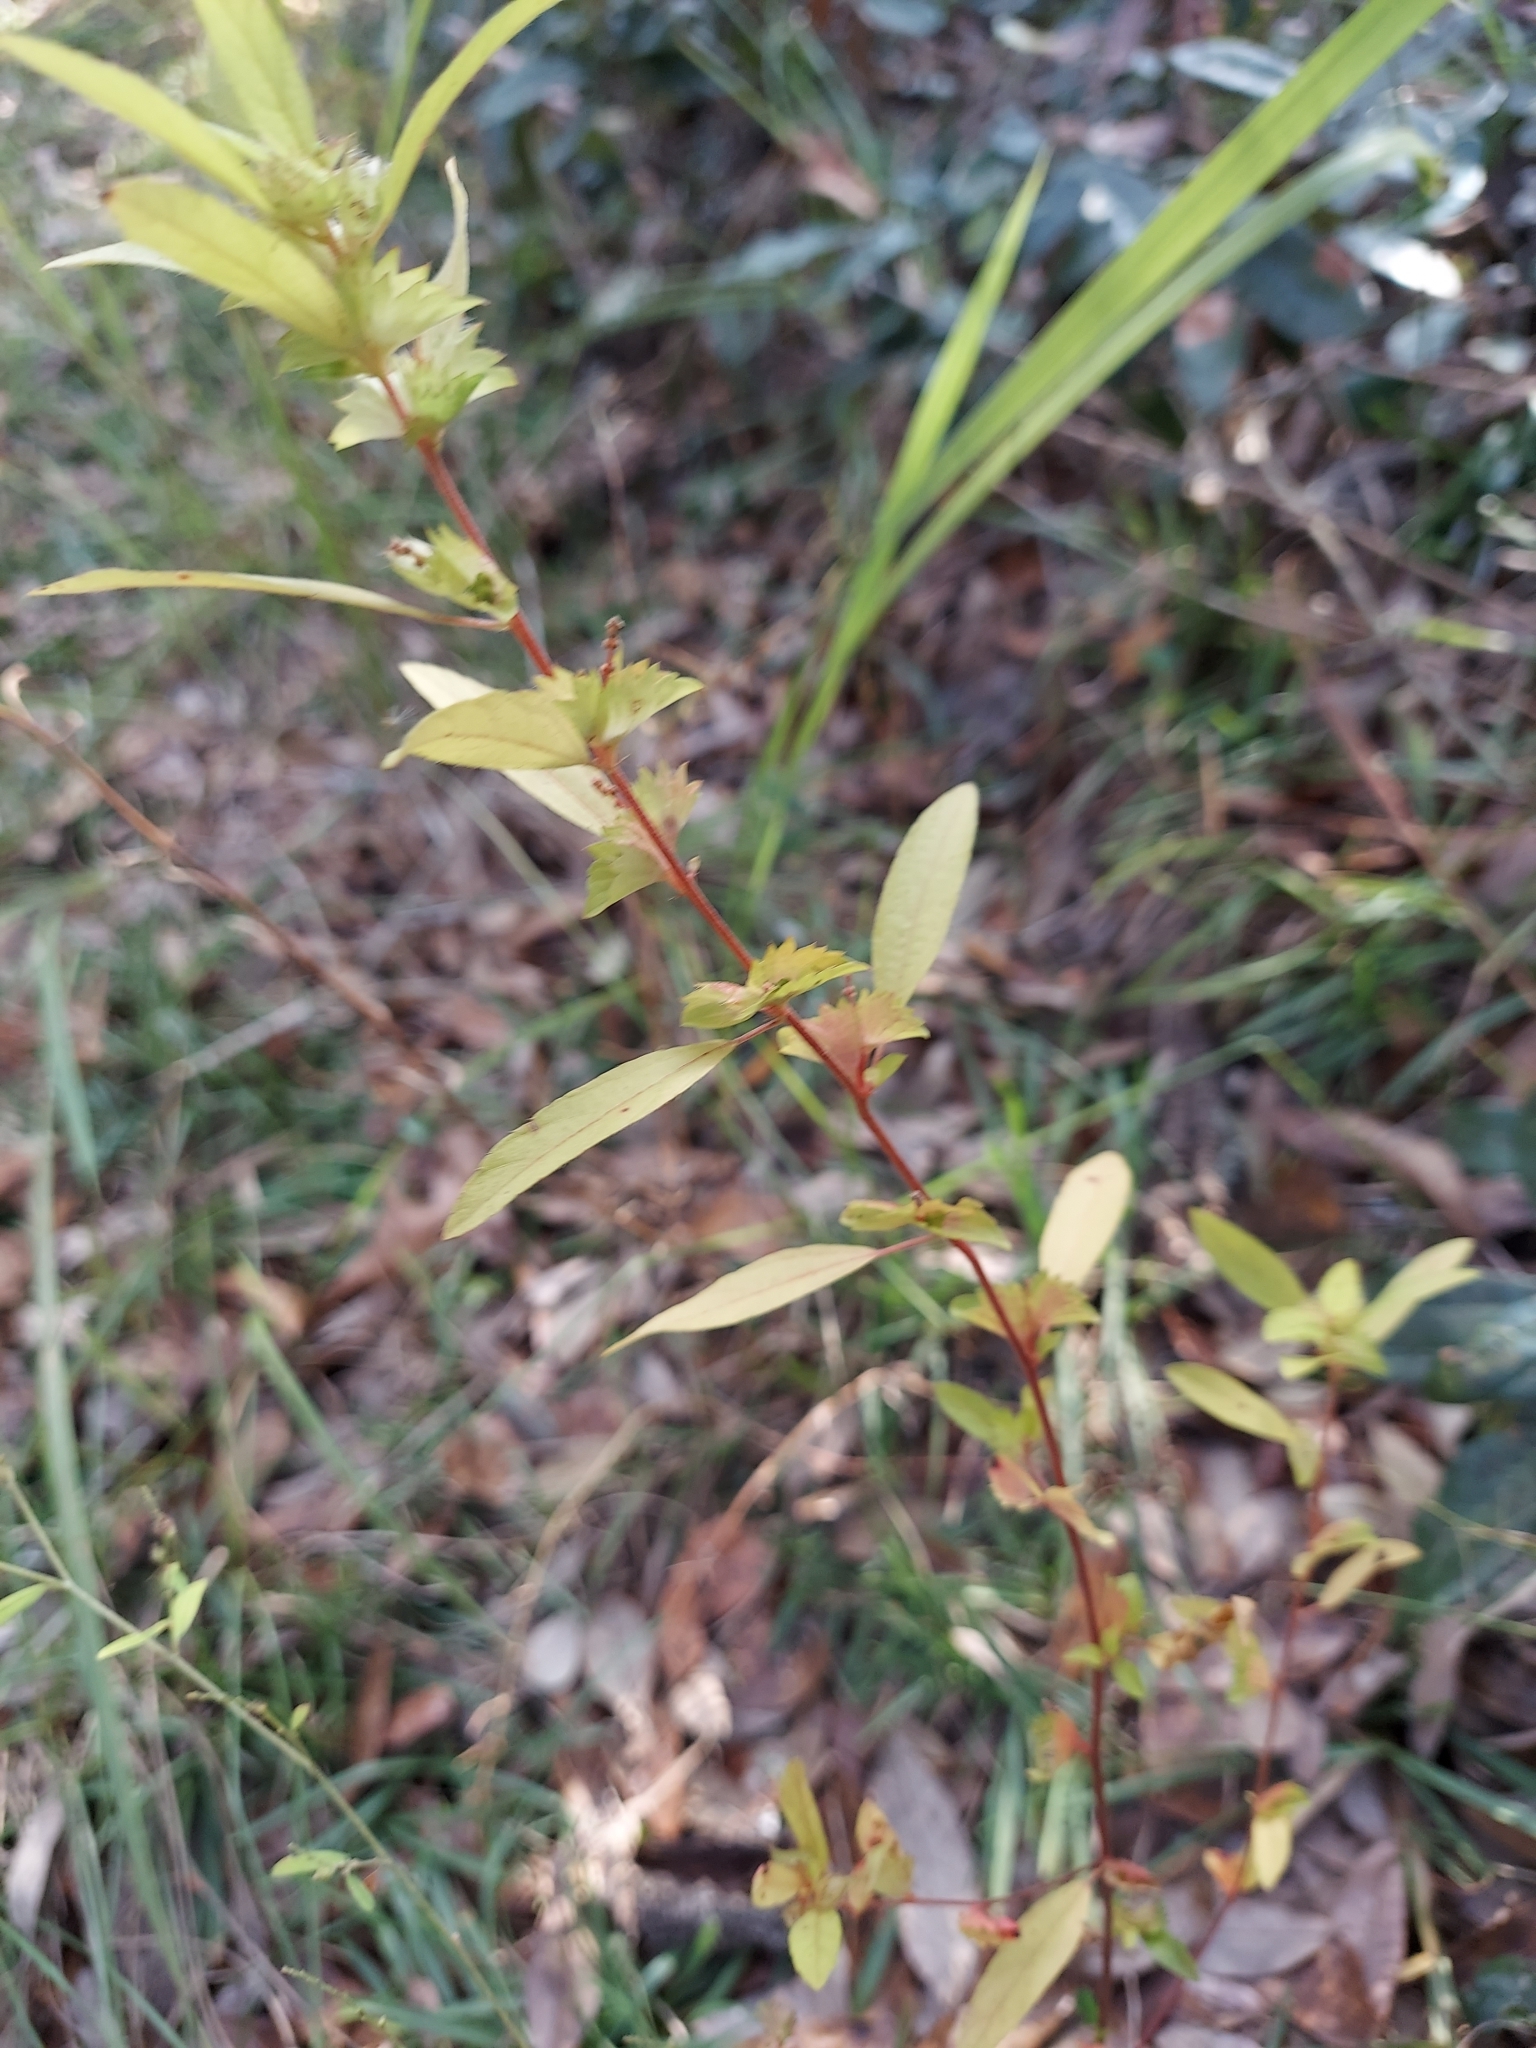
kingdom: Plantae
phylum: Tracheophyta
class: Magnoliopsida
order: Malpighiales
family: Euphorbiaceae
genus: Acalypha
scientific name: Acalypha gracilens
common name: Slender three-seeded mercury
